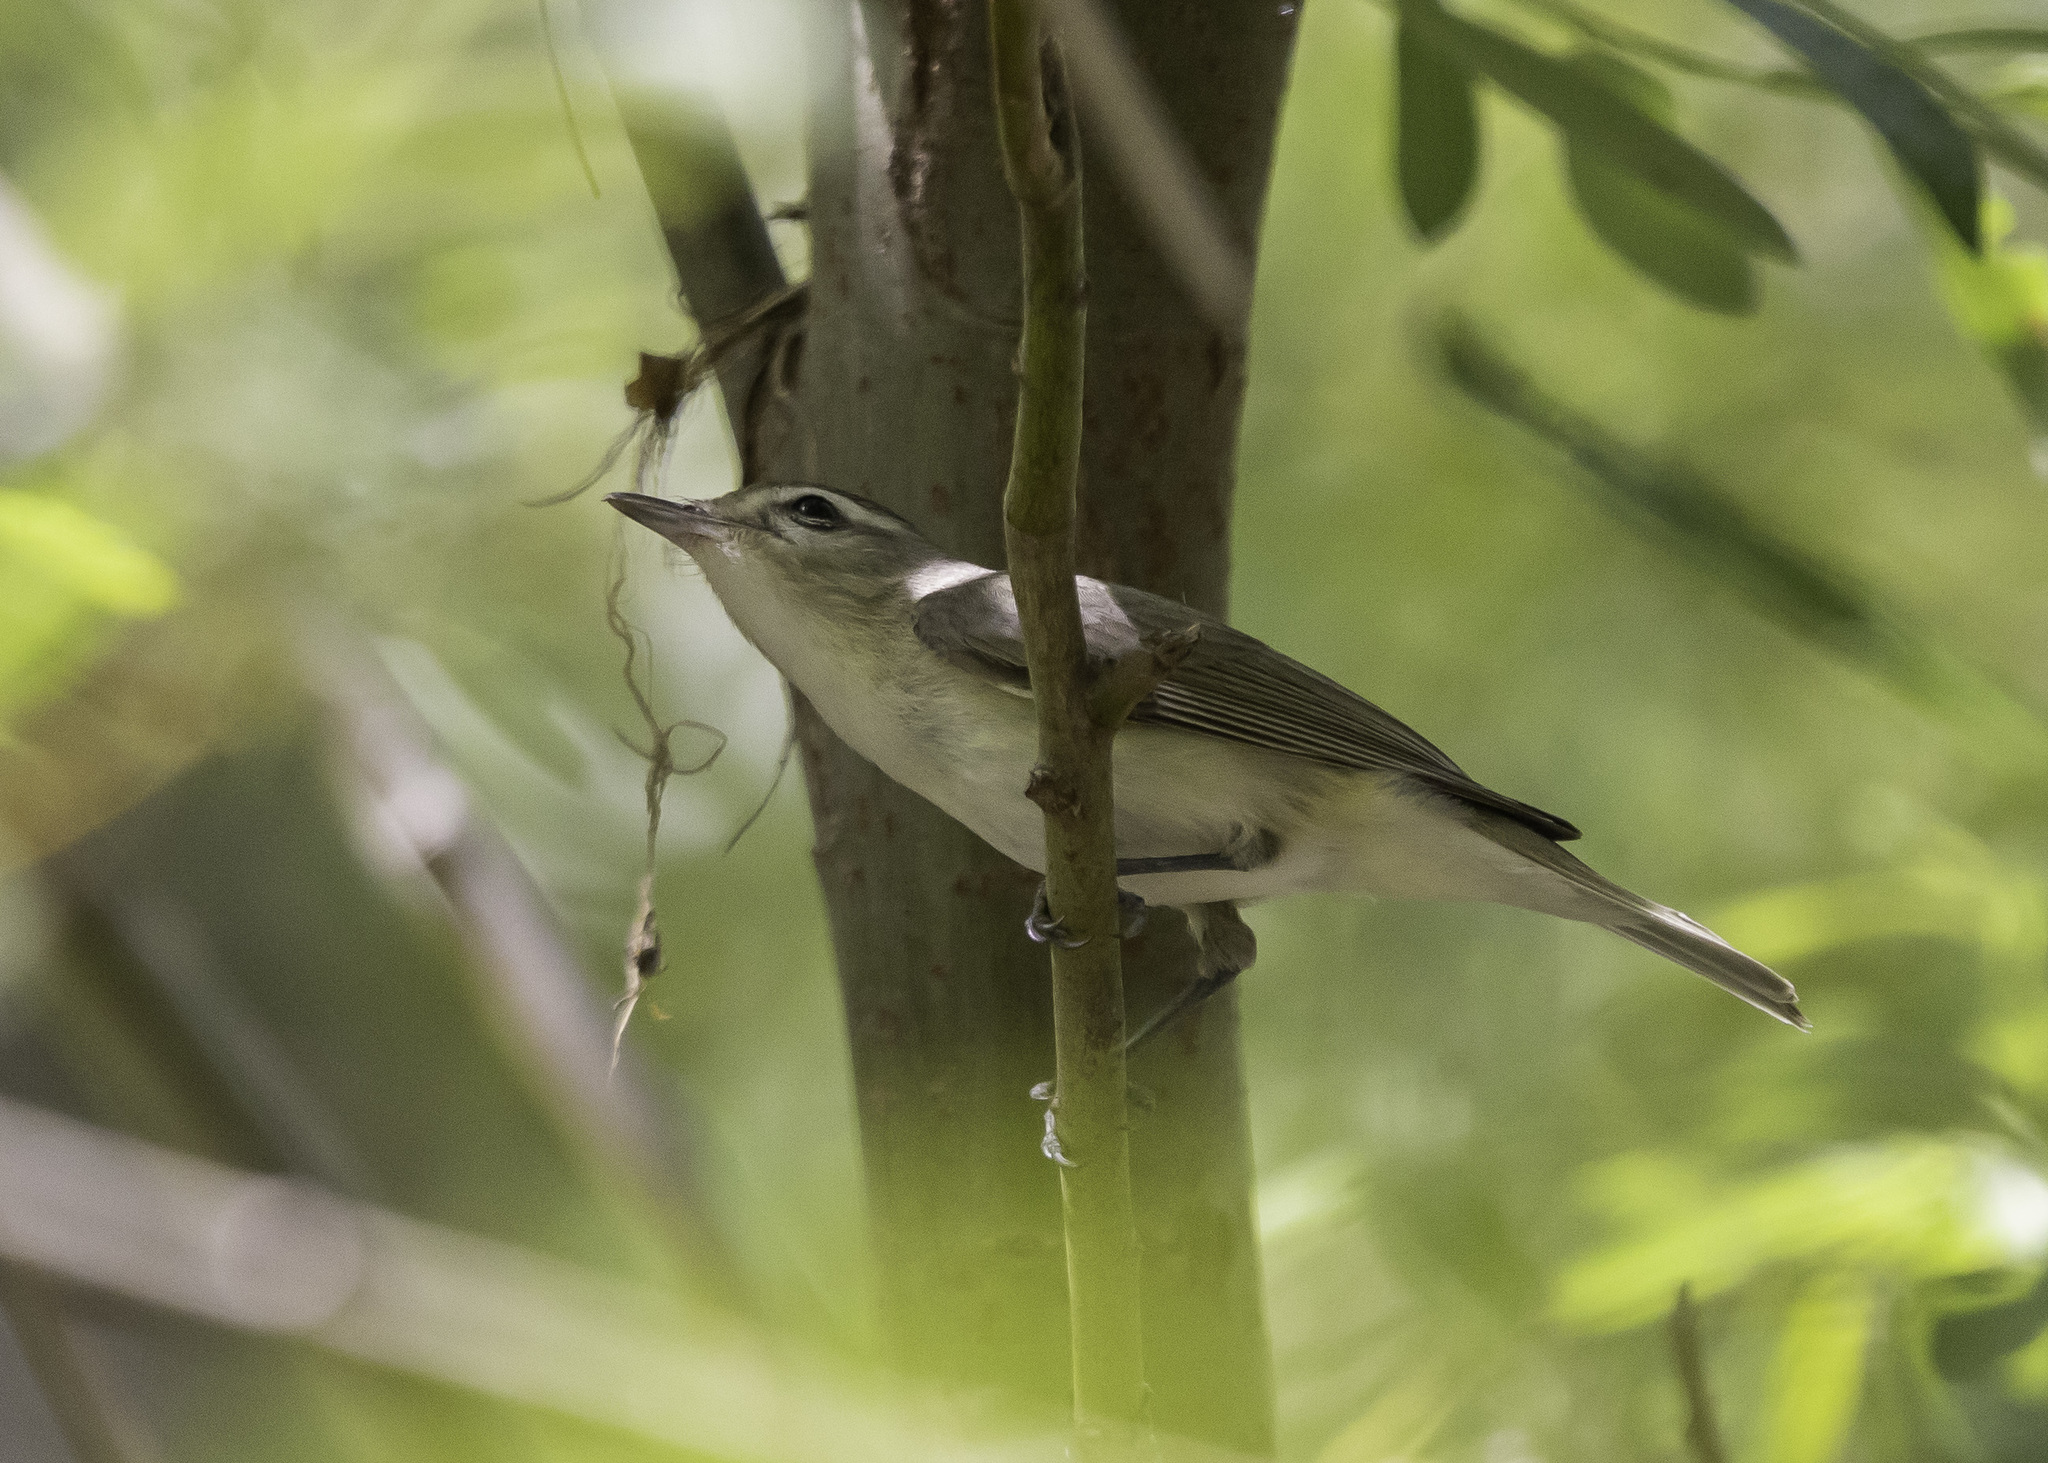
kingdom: Animalia
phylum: Chordata
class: Aves
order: Passeriformes
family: Vireonidae
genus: Vireo
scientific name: Vireo gilvus
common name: Warbling vireo
